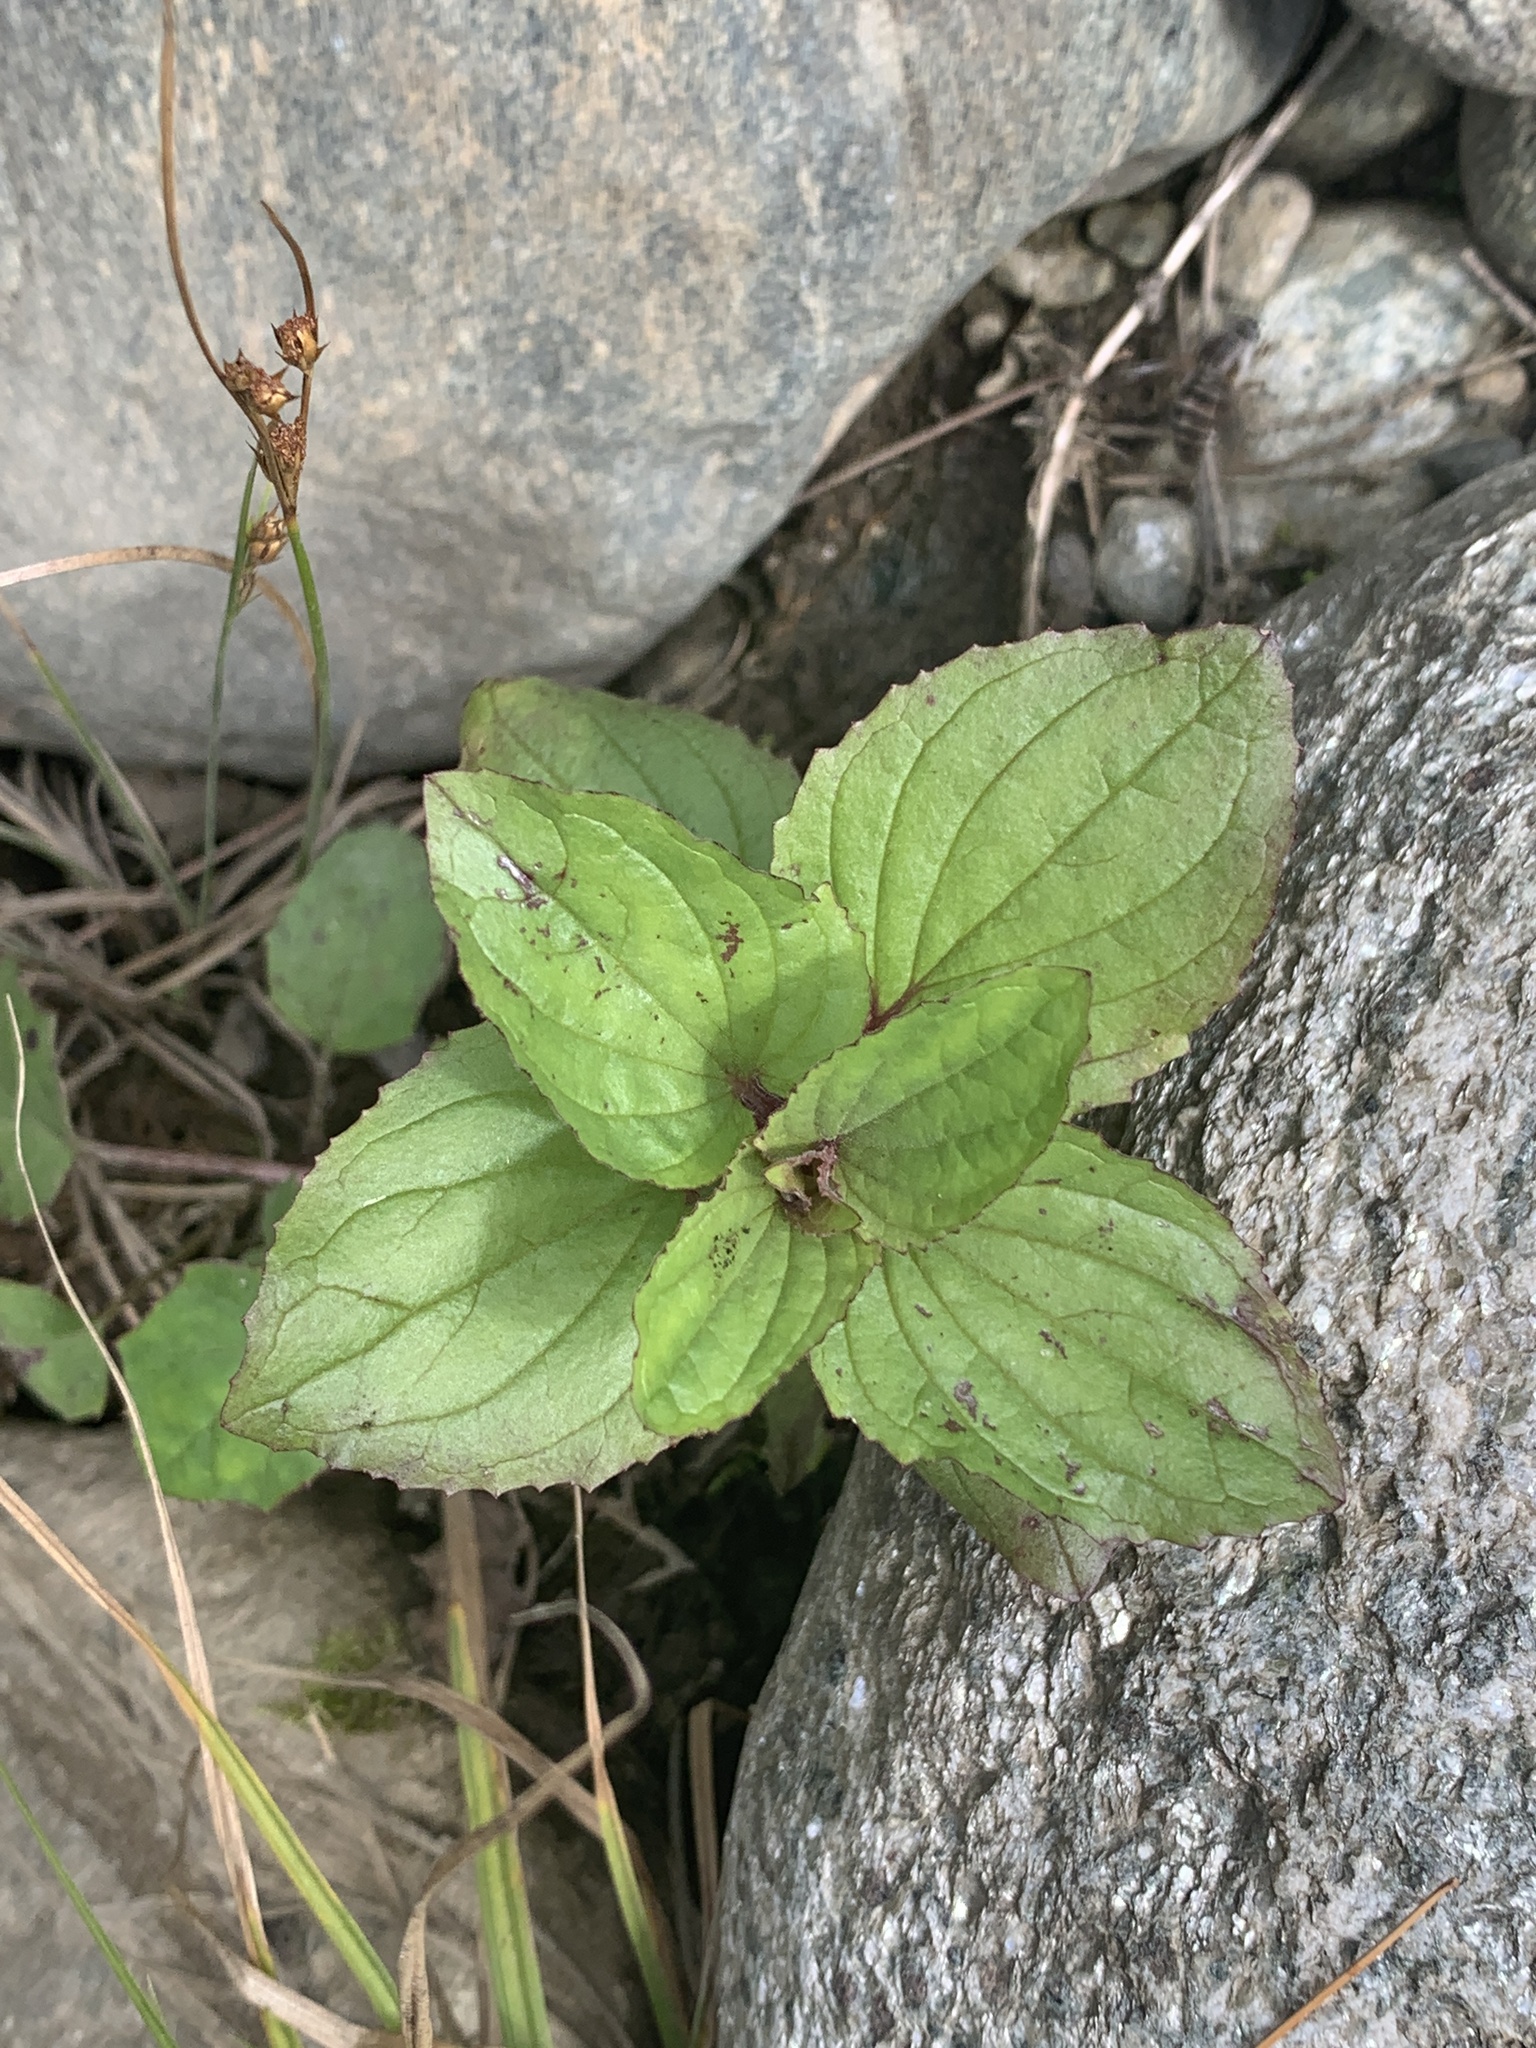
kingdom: Plantae
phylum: Tracheophyta
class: Liliopsida
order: Poales
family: Juncaceae
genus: Juncus
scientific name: Juncus tenuis
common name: Slender rush
